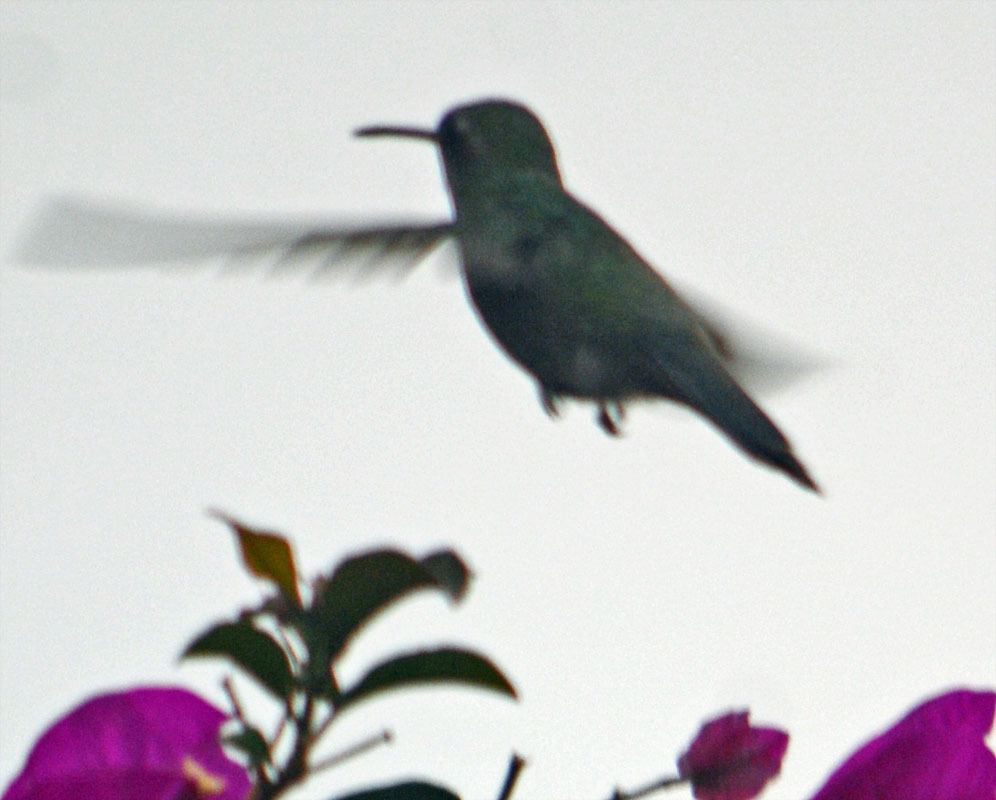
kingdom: Animalia
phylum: Chordata
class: Aves
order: Apodiformes
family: Trochilidae
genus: Cynanthus
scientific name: Cynanthus latirostris
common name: Broad-billed hummingbird
